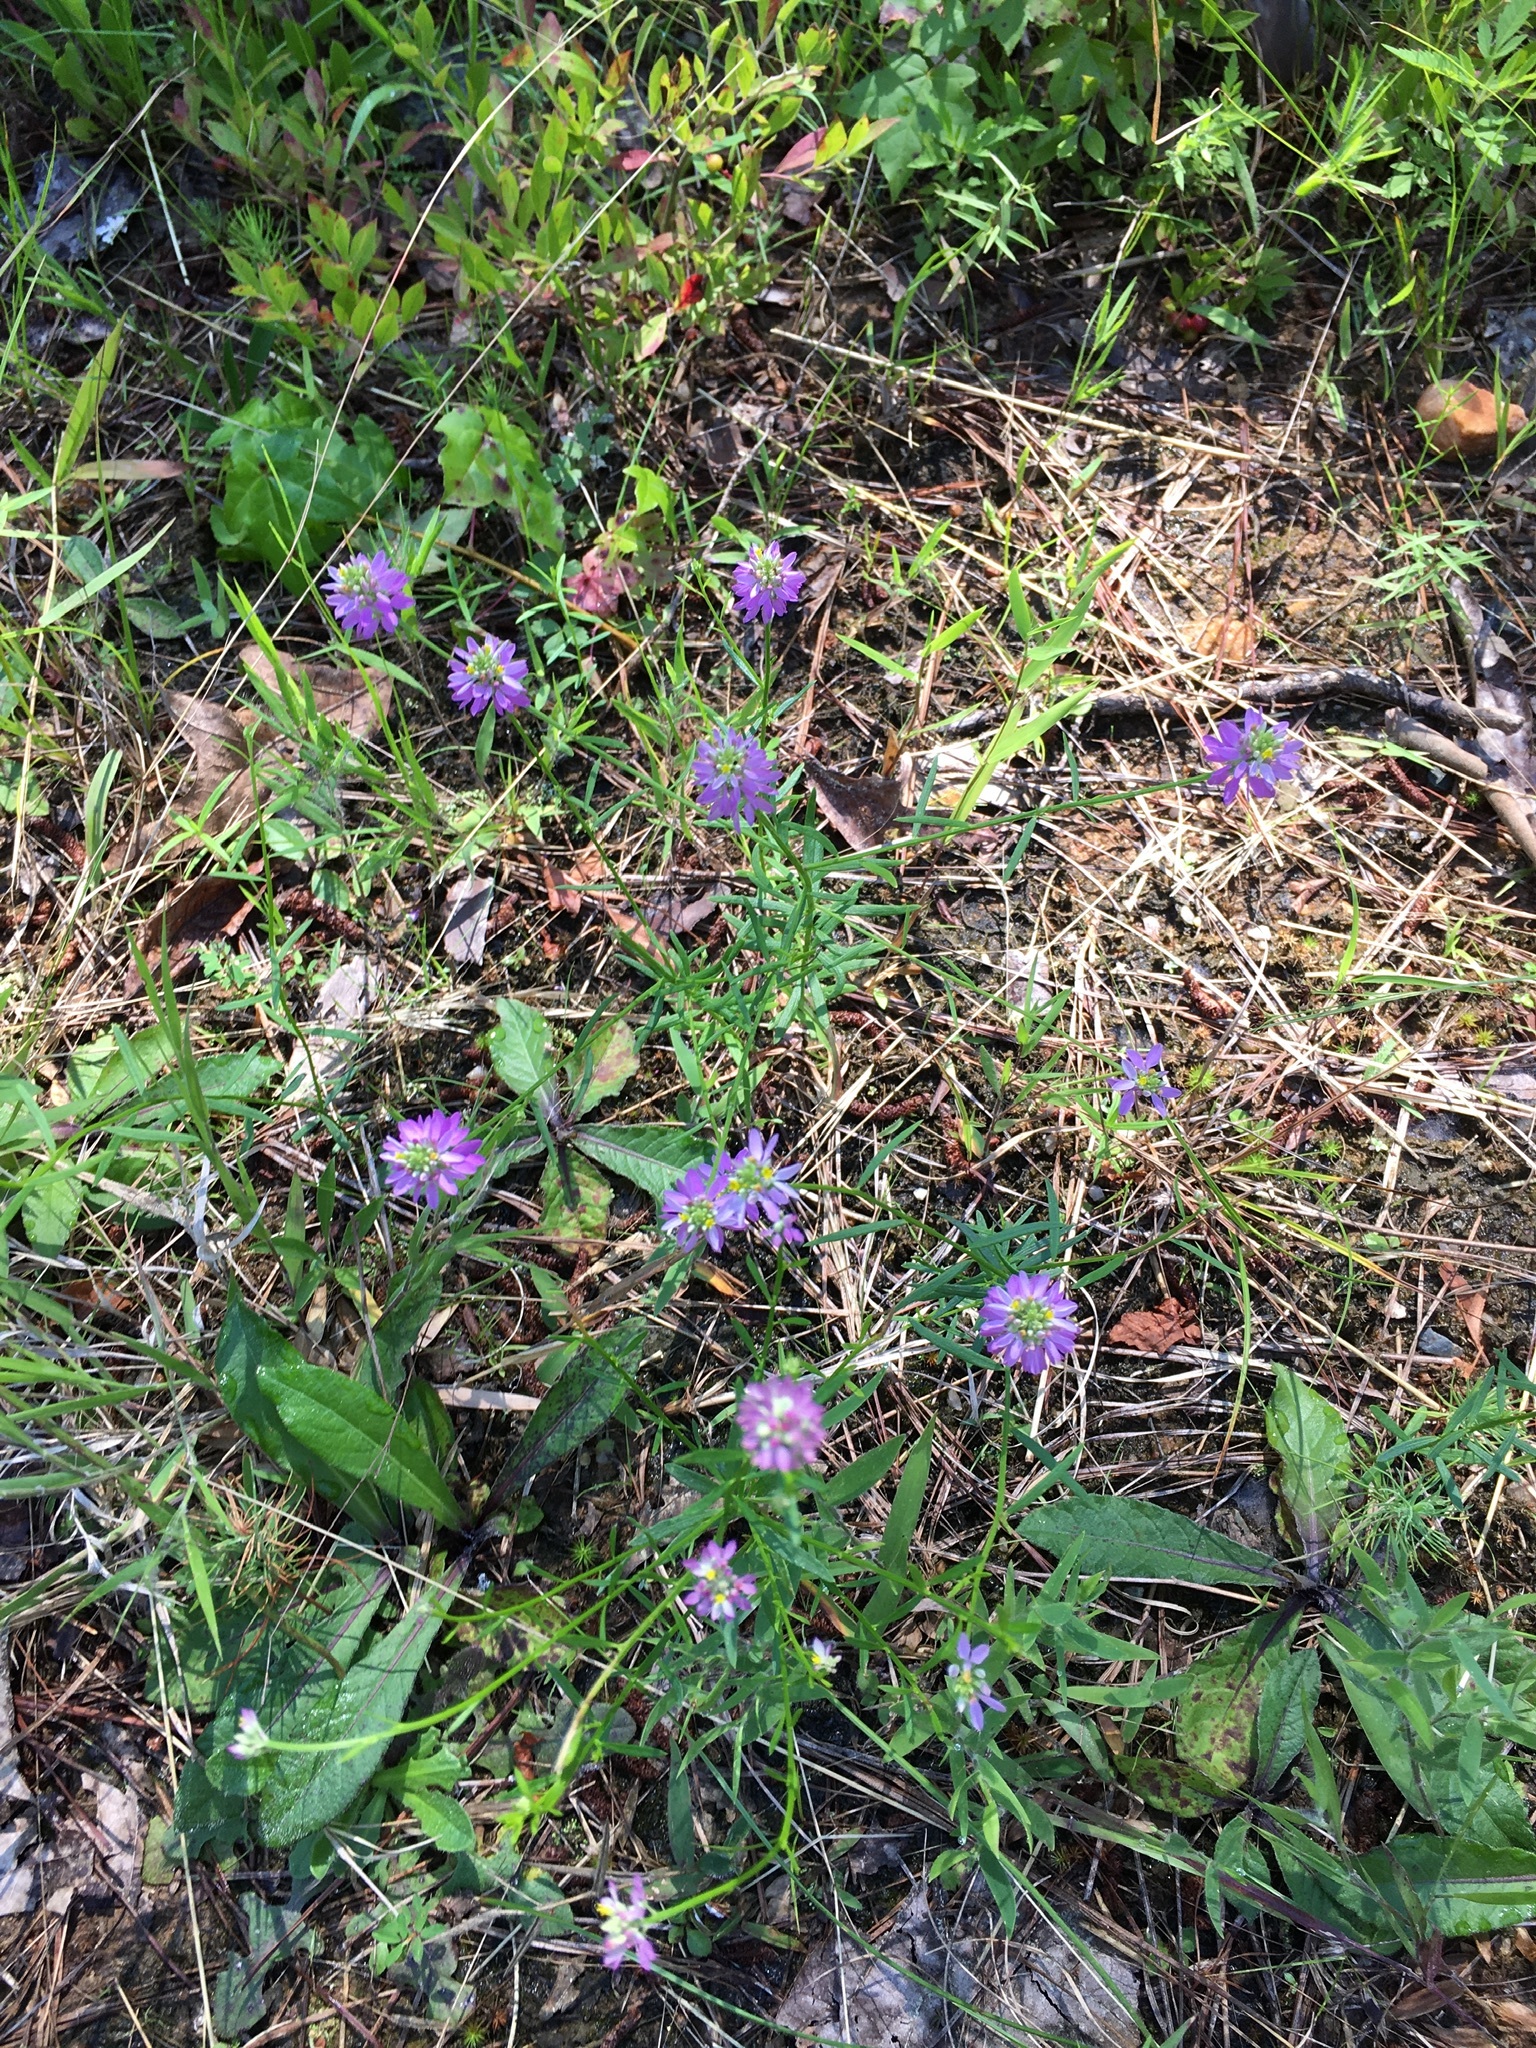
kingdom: Plantae
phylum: Tracheophyta
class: Magnoliopsida
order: Fabales
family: Polygalaceae
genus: Polygala
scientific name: Polygala curtissii
